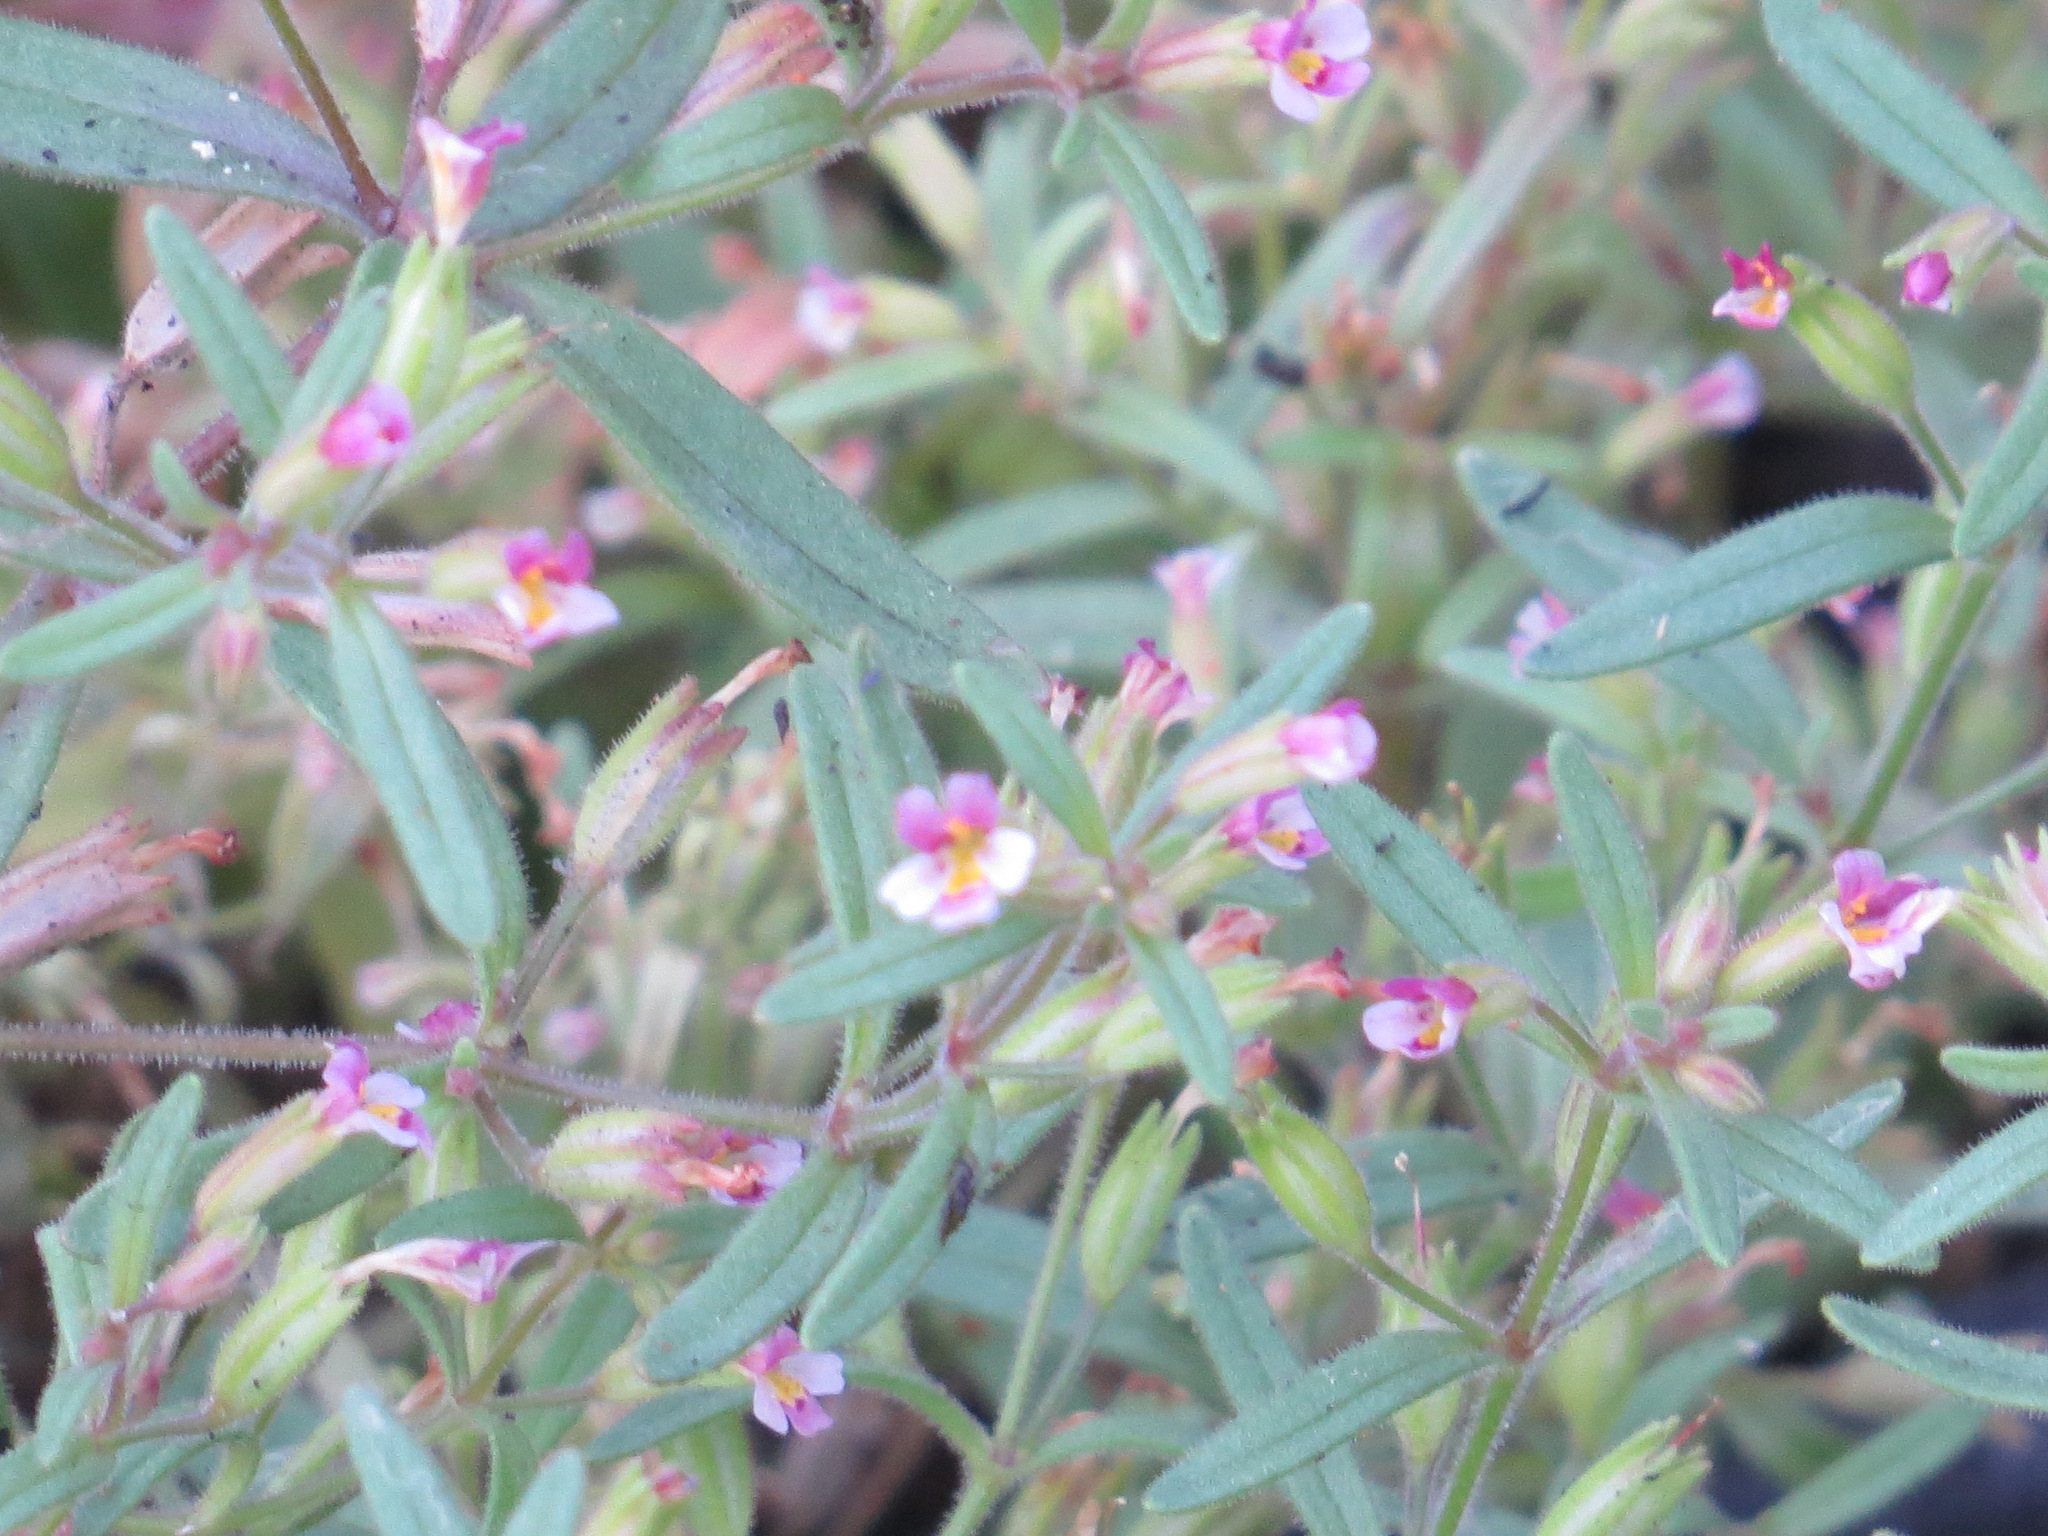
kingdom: Plantae
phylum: Tracheophyta
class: Magnoliopsida
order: Lamiales
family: Phrymaceae
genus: Erythranthe
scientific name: Erythranthe breweri
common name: Brewer's monkeyflower
